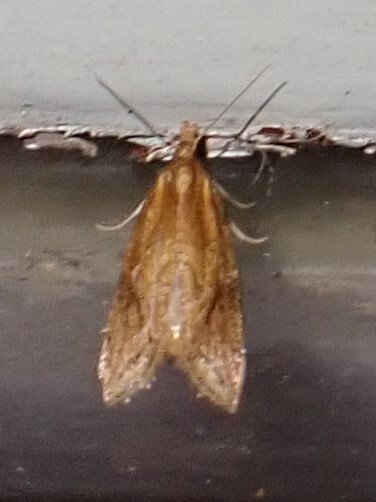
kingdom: Animalia
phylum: Arthropoda
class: Insecta
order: Lepidoptera
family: Tortricidae
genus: Aethes
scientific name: Aethes biscana
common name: Reddish aethes
